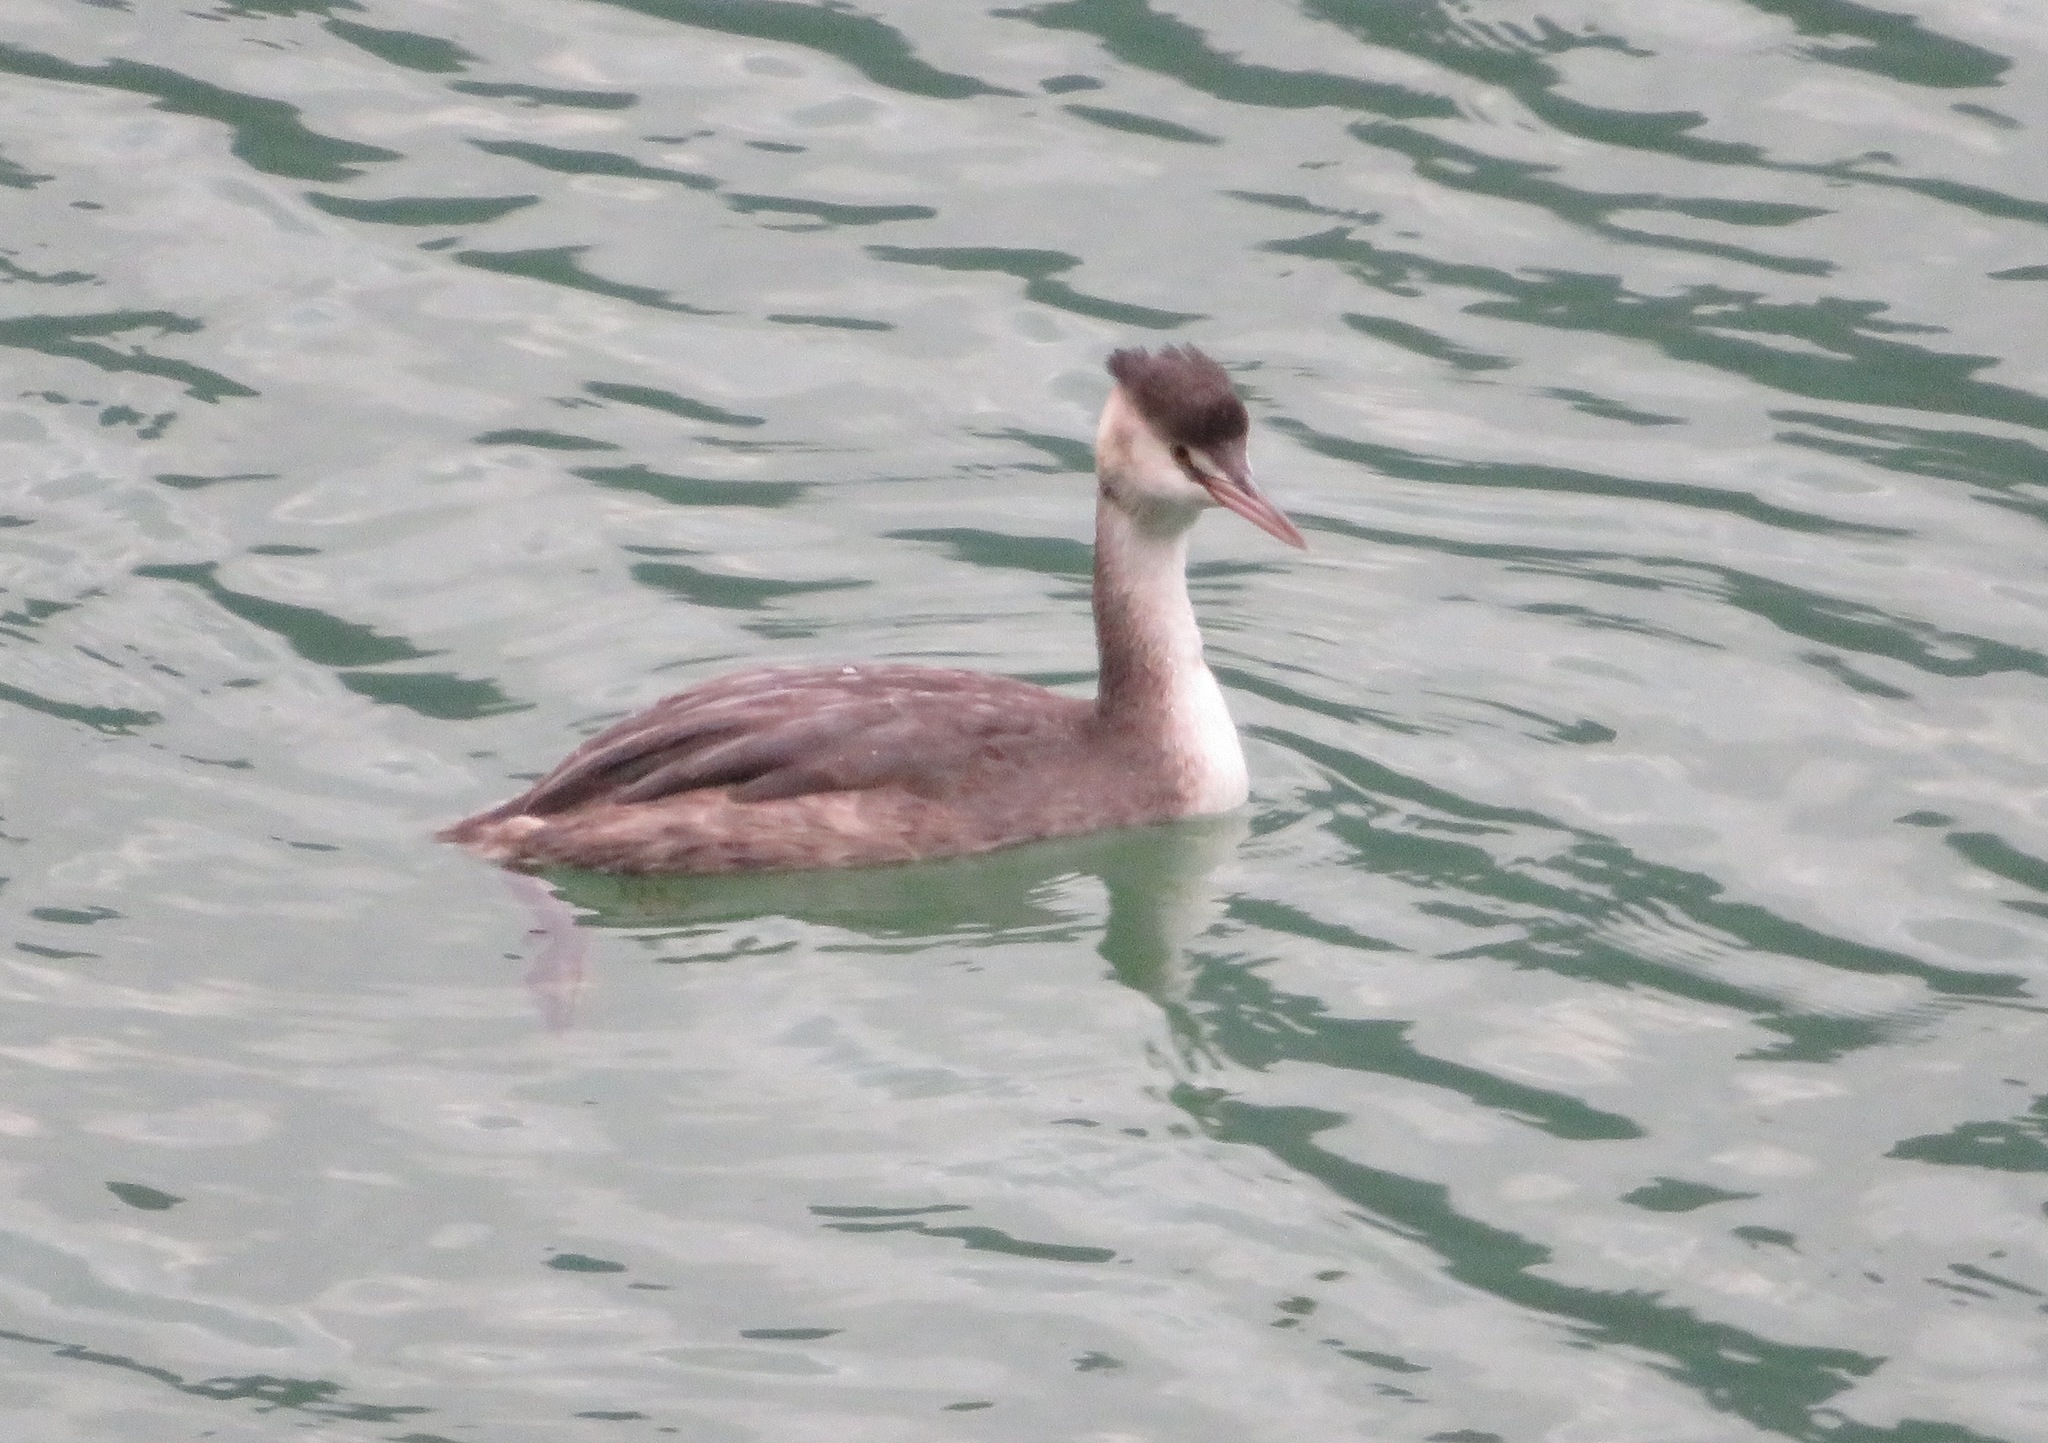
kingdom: Animalia
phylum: Chordata
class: Aves
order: Podicipediformes
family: Podicipedidae
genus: Podiceps
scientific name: Podiceps cristatus
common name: Great crested grebe
